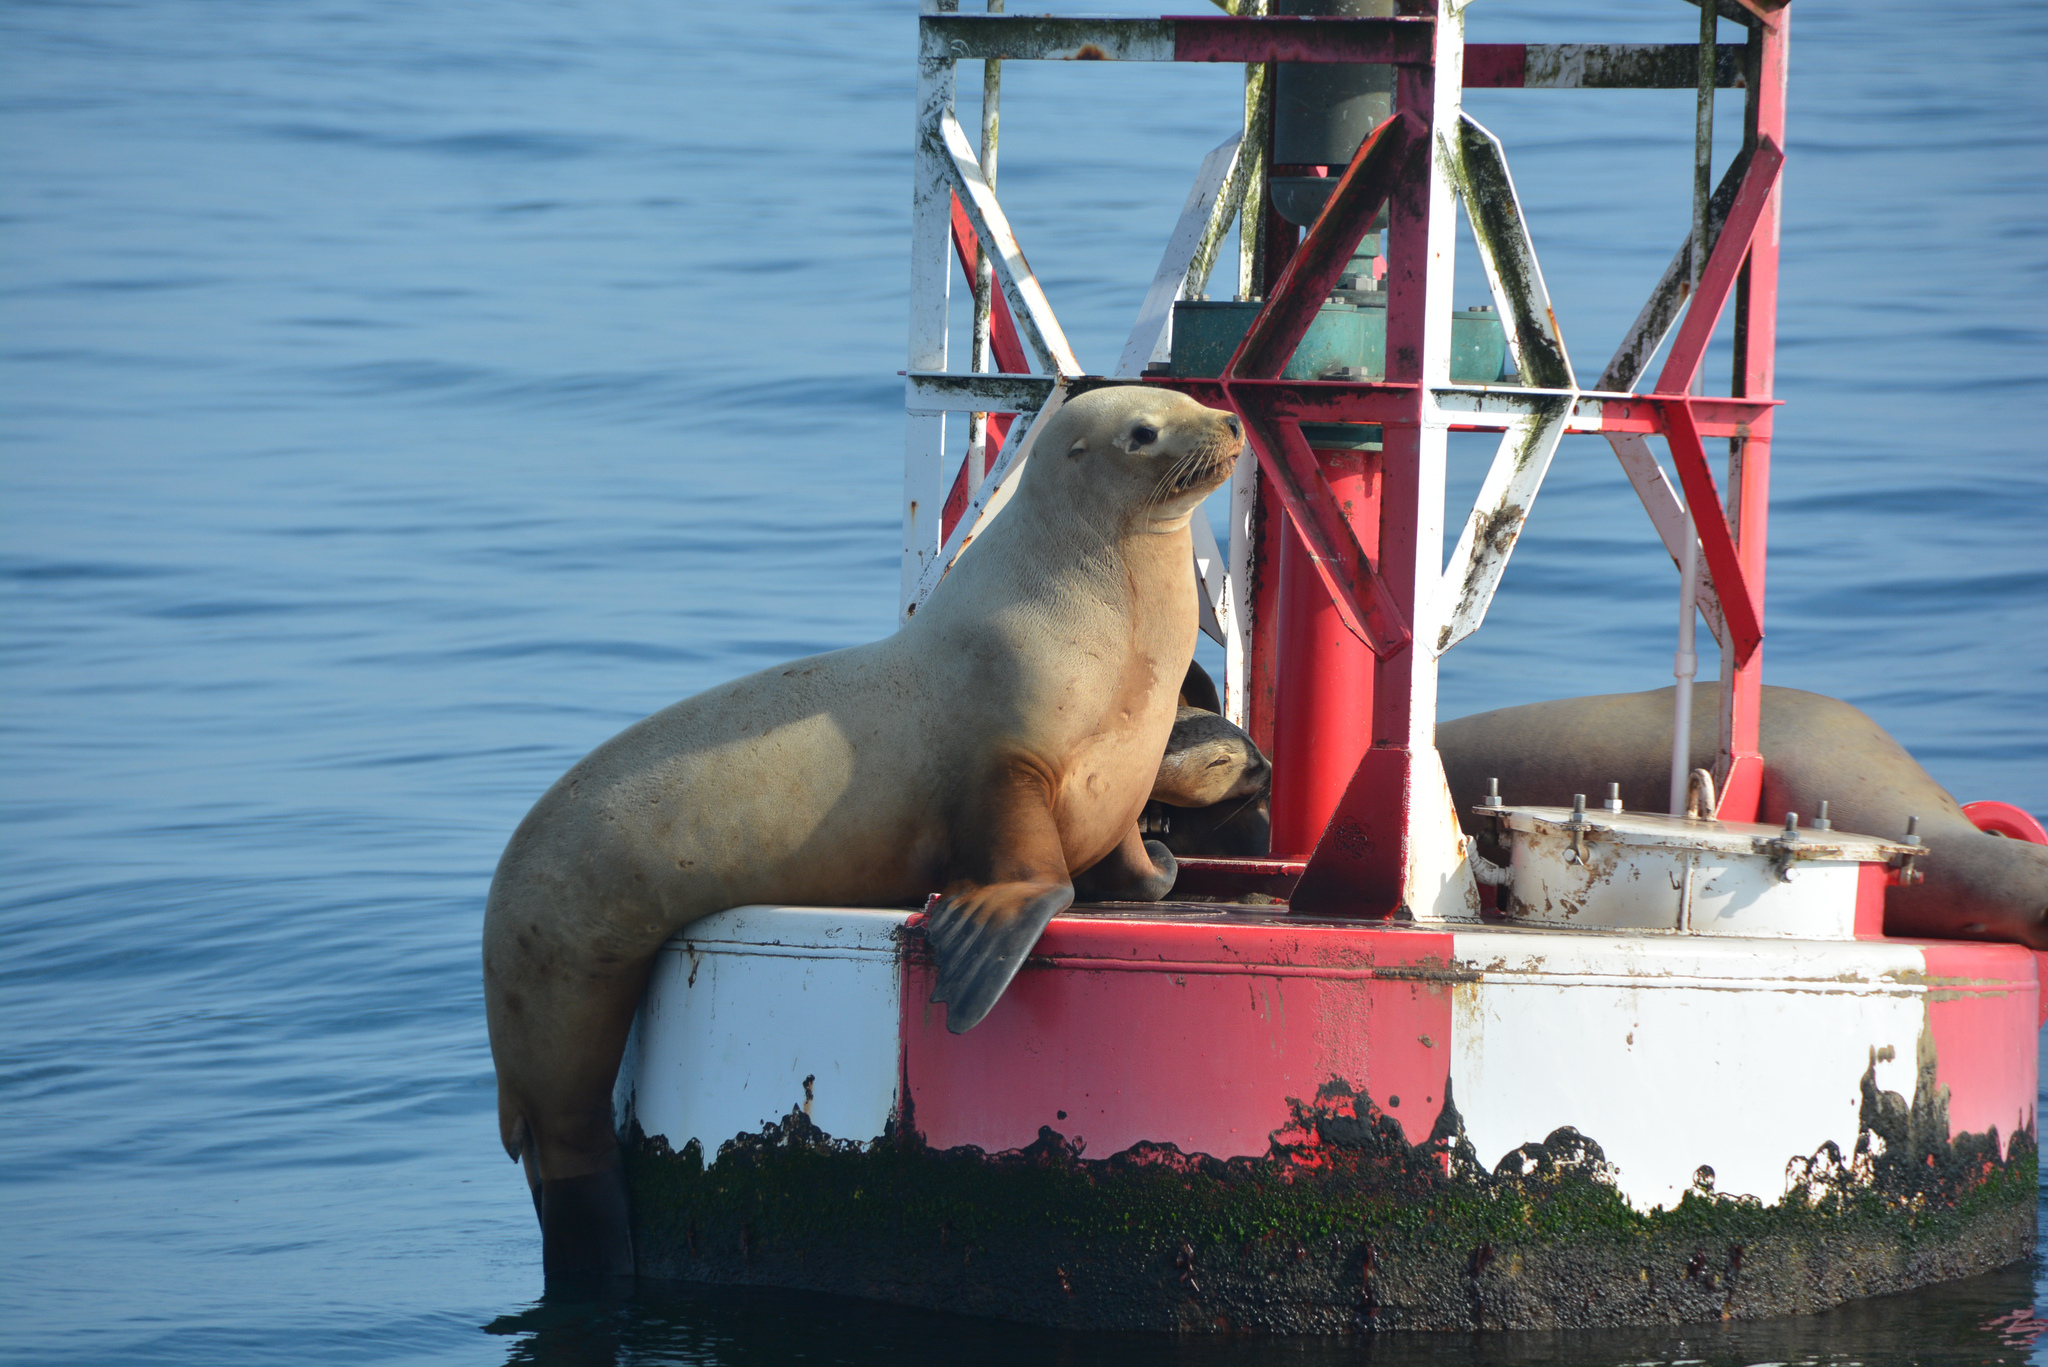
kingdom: Animalia
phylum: Chordata
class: Mammalia
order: Carnivora
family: Otariidae
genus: Zalophus
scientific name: Zalophus californianus
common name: California sea lion
